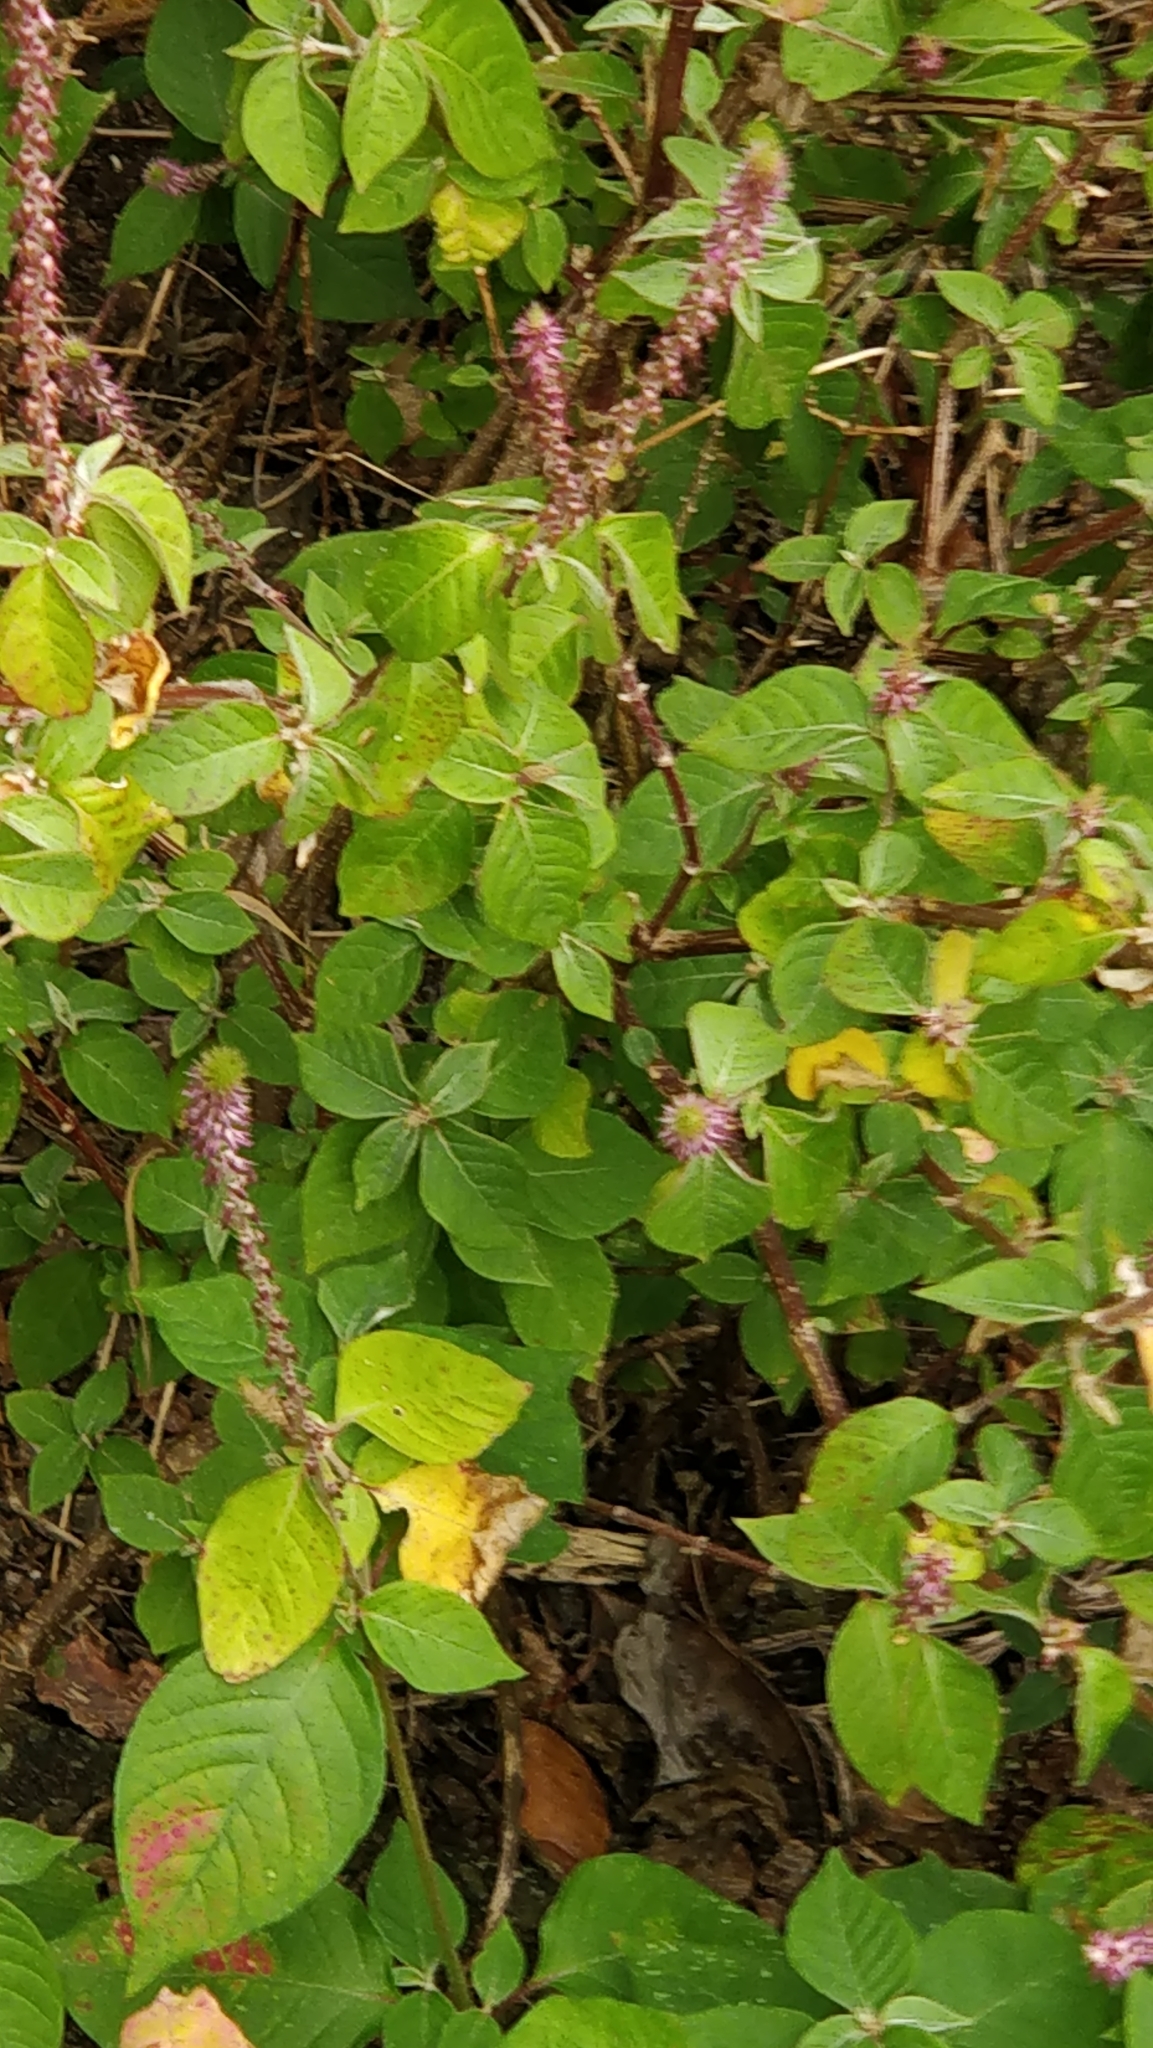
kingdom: Plantae
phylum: Tracheophyta
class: Magnoliopsida
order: Caryophyllales
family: Amaranthaceae
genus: Achyranthes
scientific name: Achyranthes aspera
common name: Devil's horsewhip
